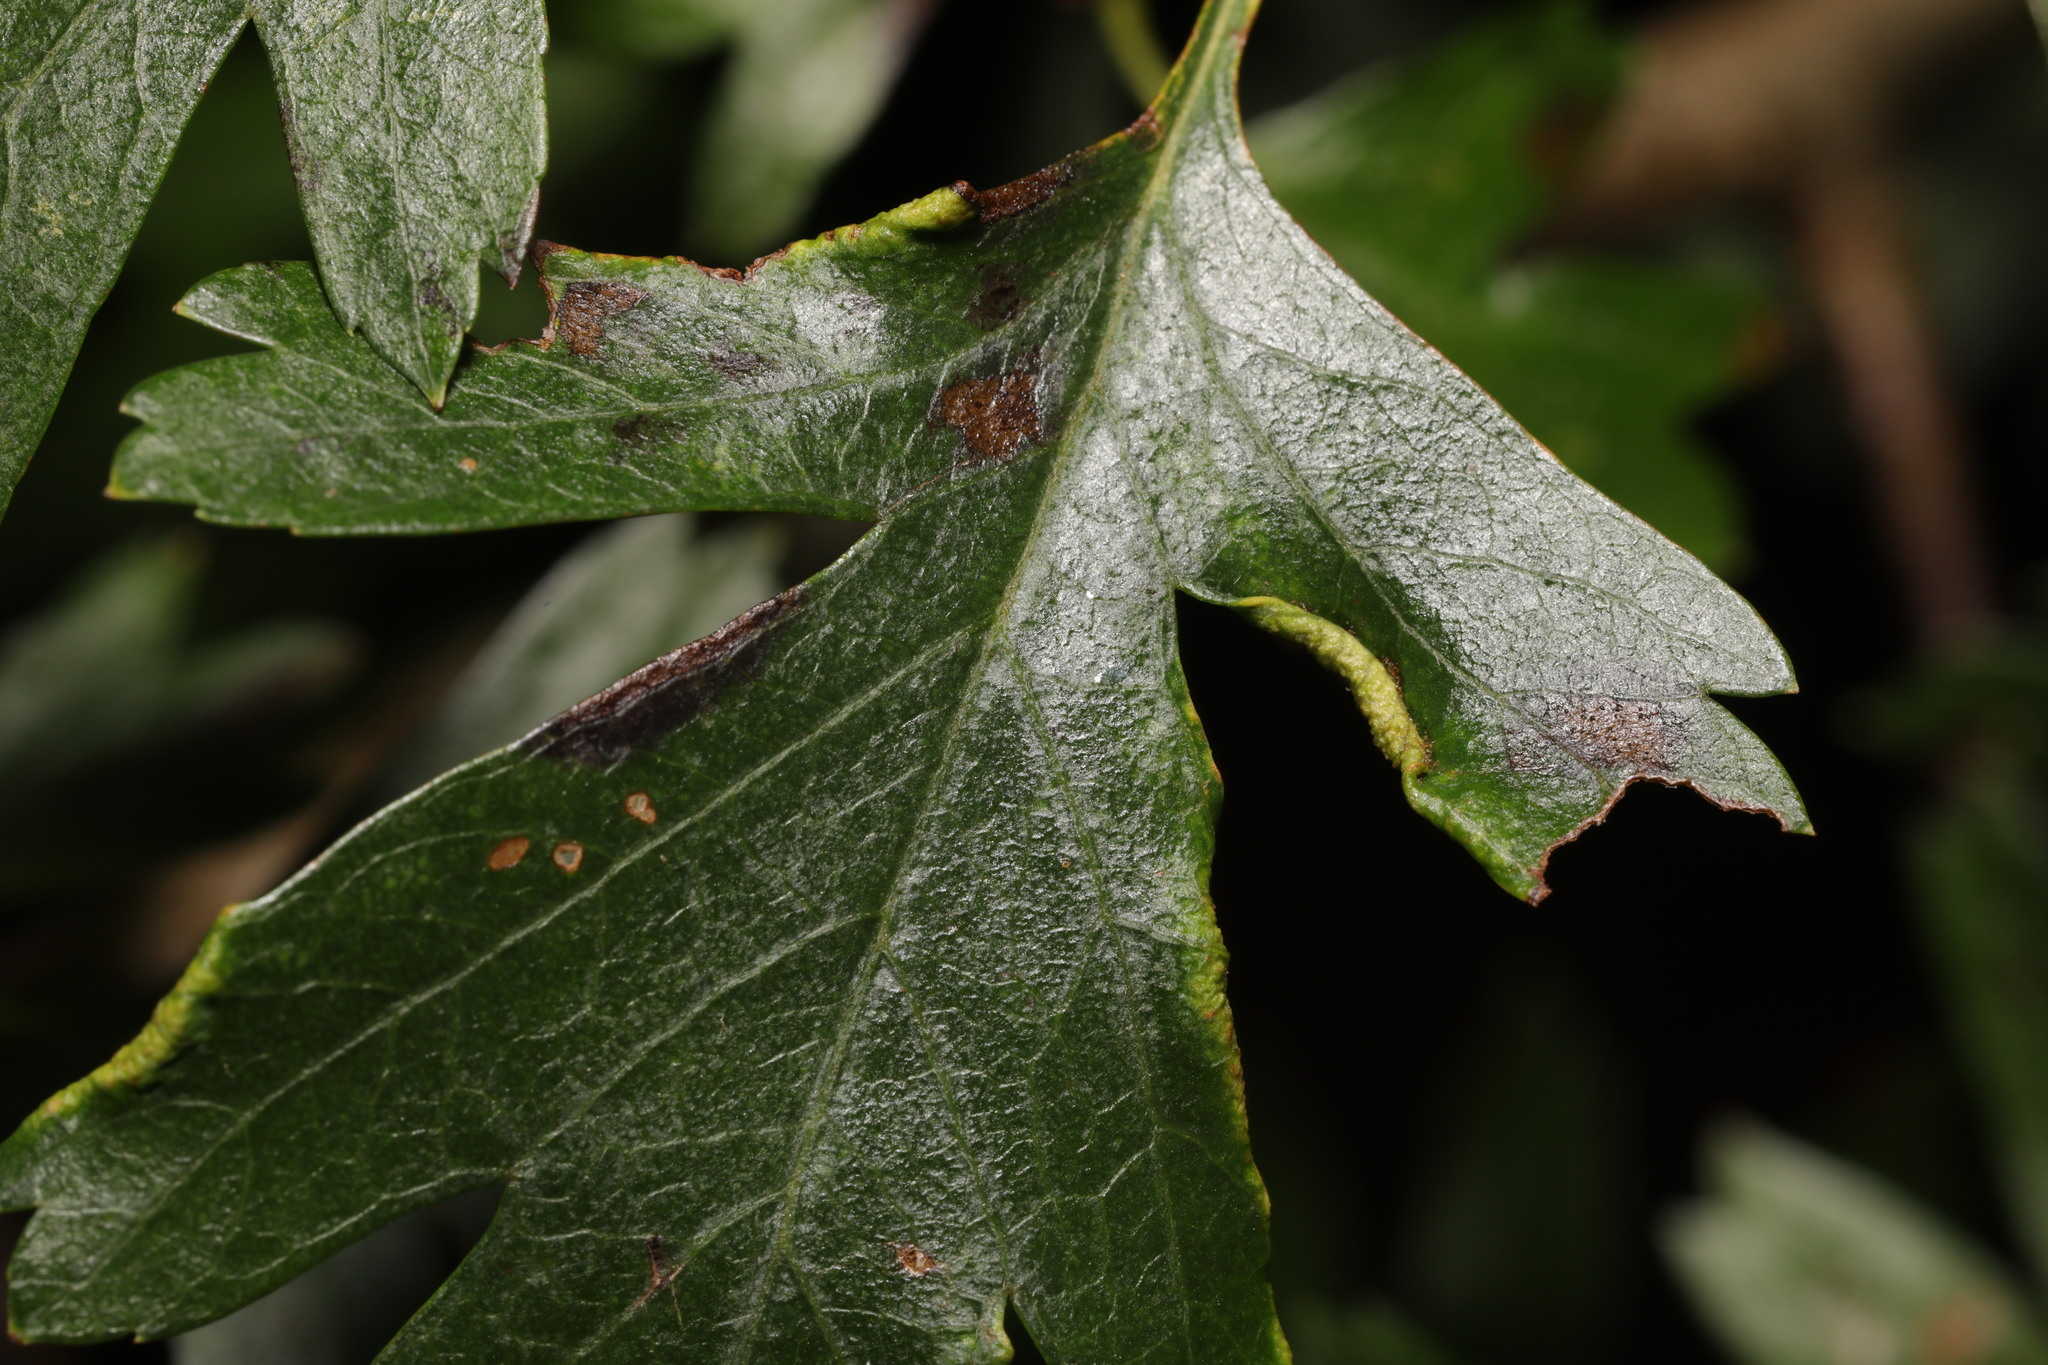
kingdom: Animalia
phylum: Arthropoda
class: Arachnida
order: Trombidiformes
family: Eriophyidae
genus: Phyllocoptes
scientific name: Phyllocoptes goniothorax
